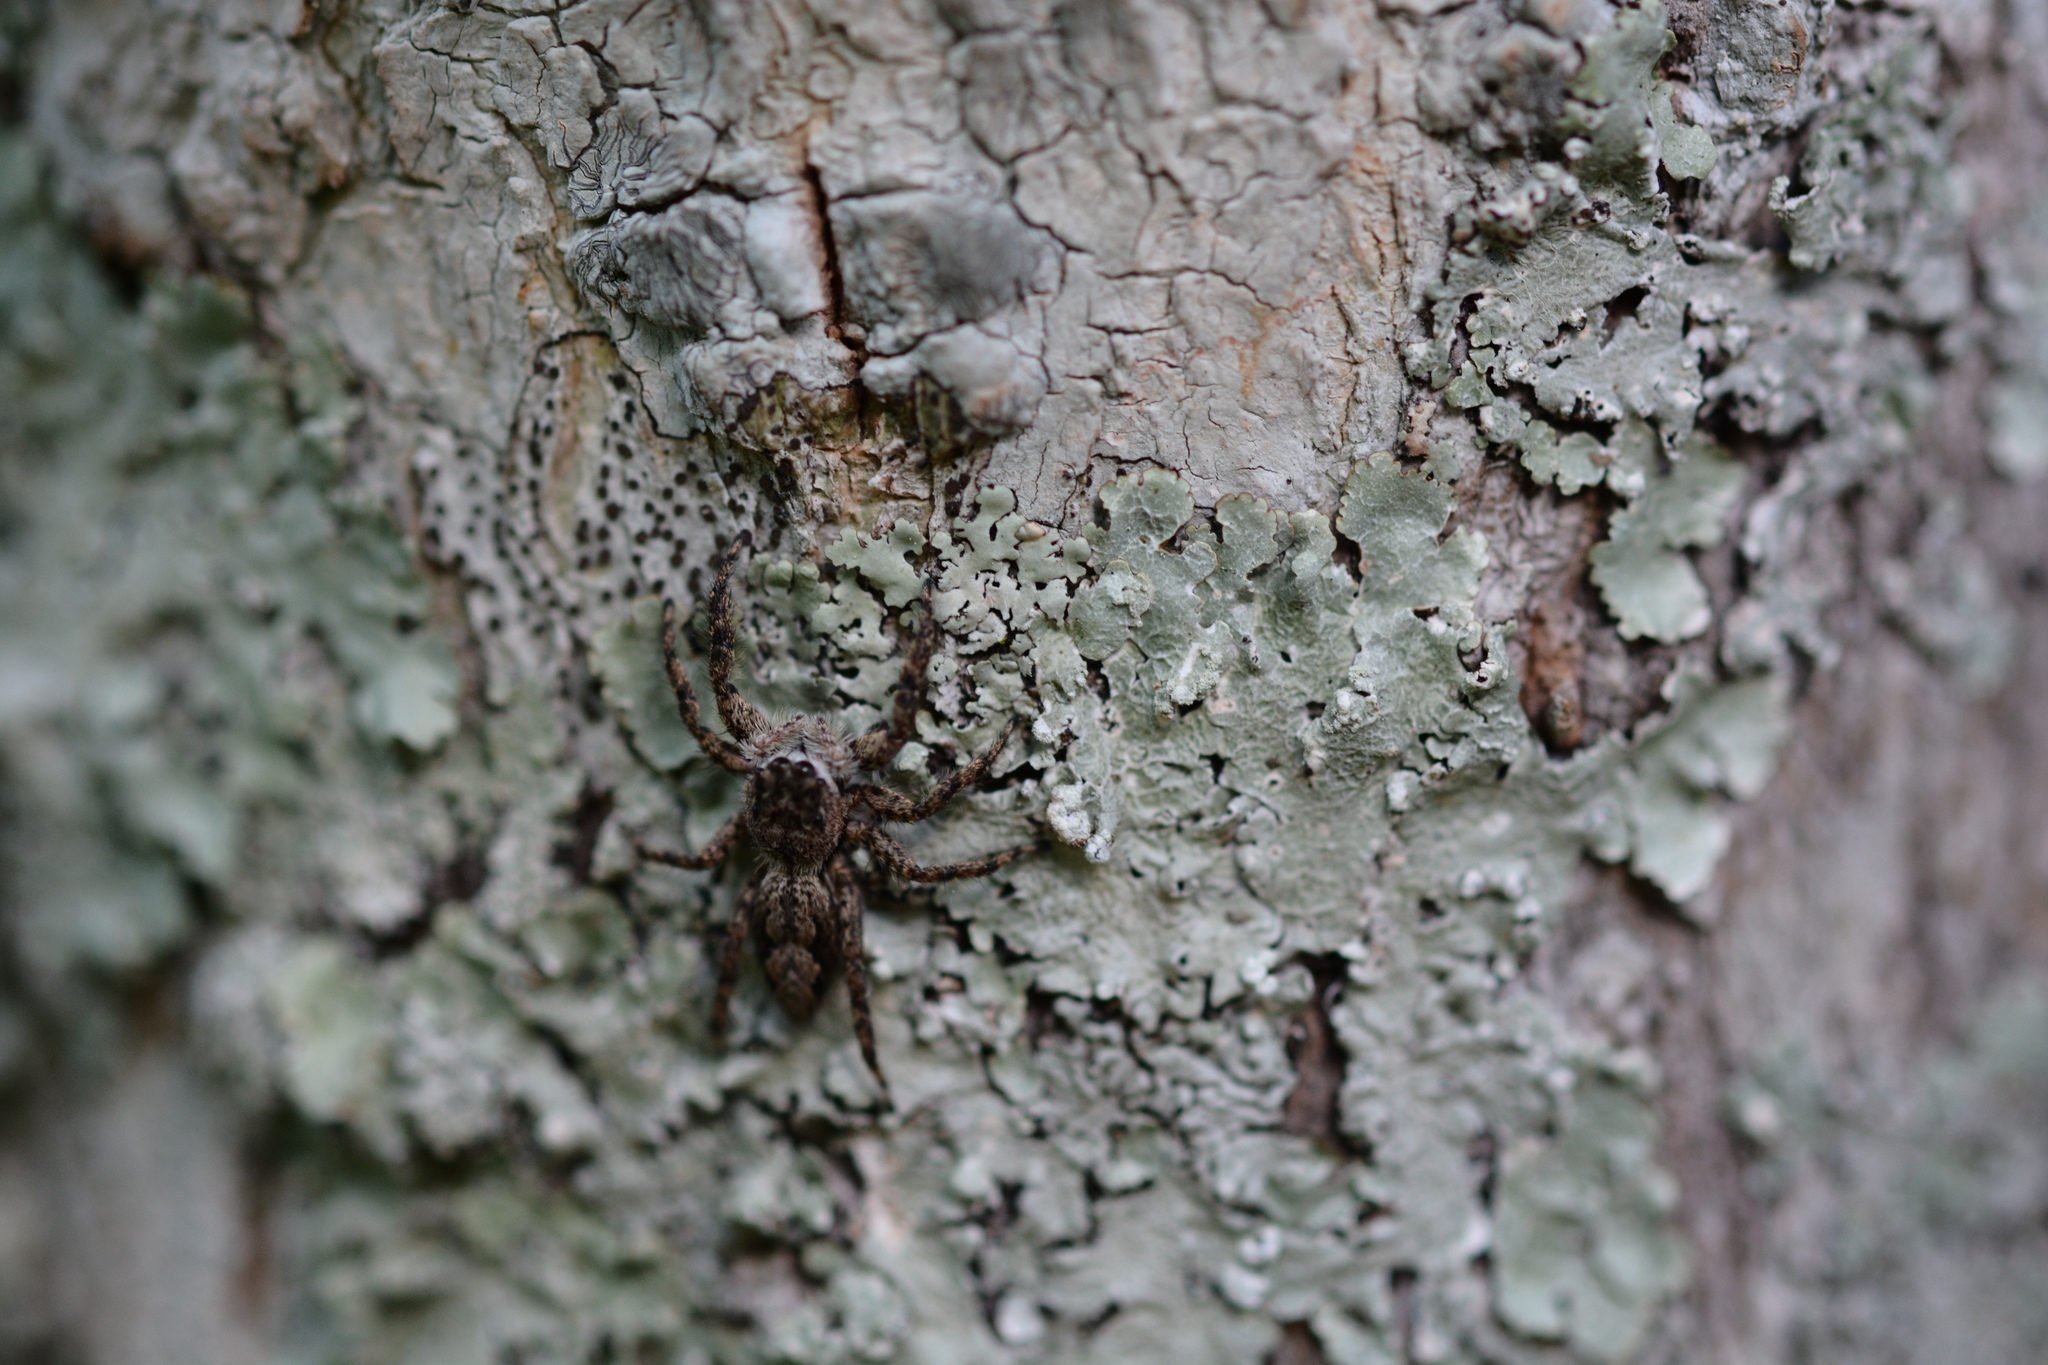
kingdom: Animalia
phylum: Arthropoda
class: Arachnida
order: Araneae
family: Salticidae
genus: Platycryptus
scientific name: Platycryptus undatus
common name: Tan jumping spider
